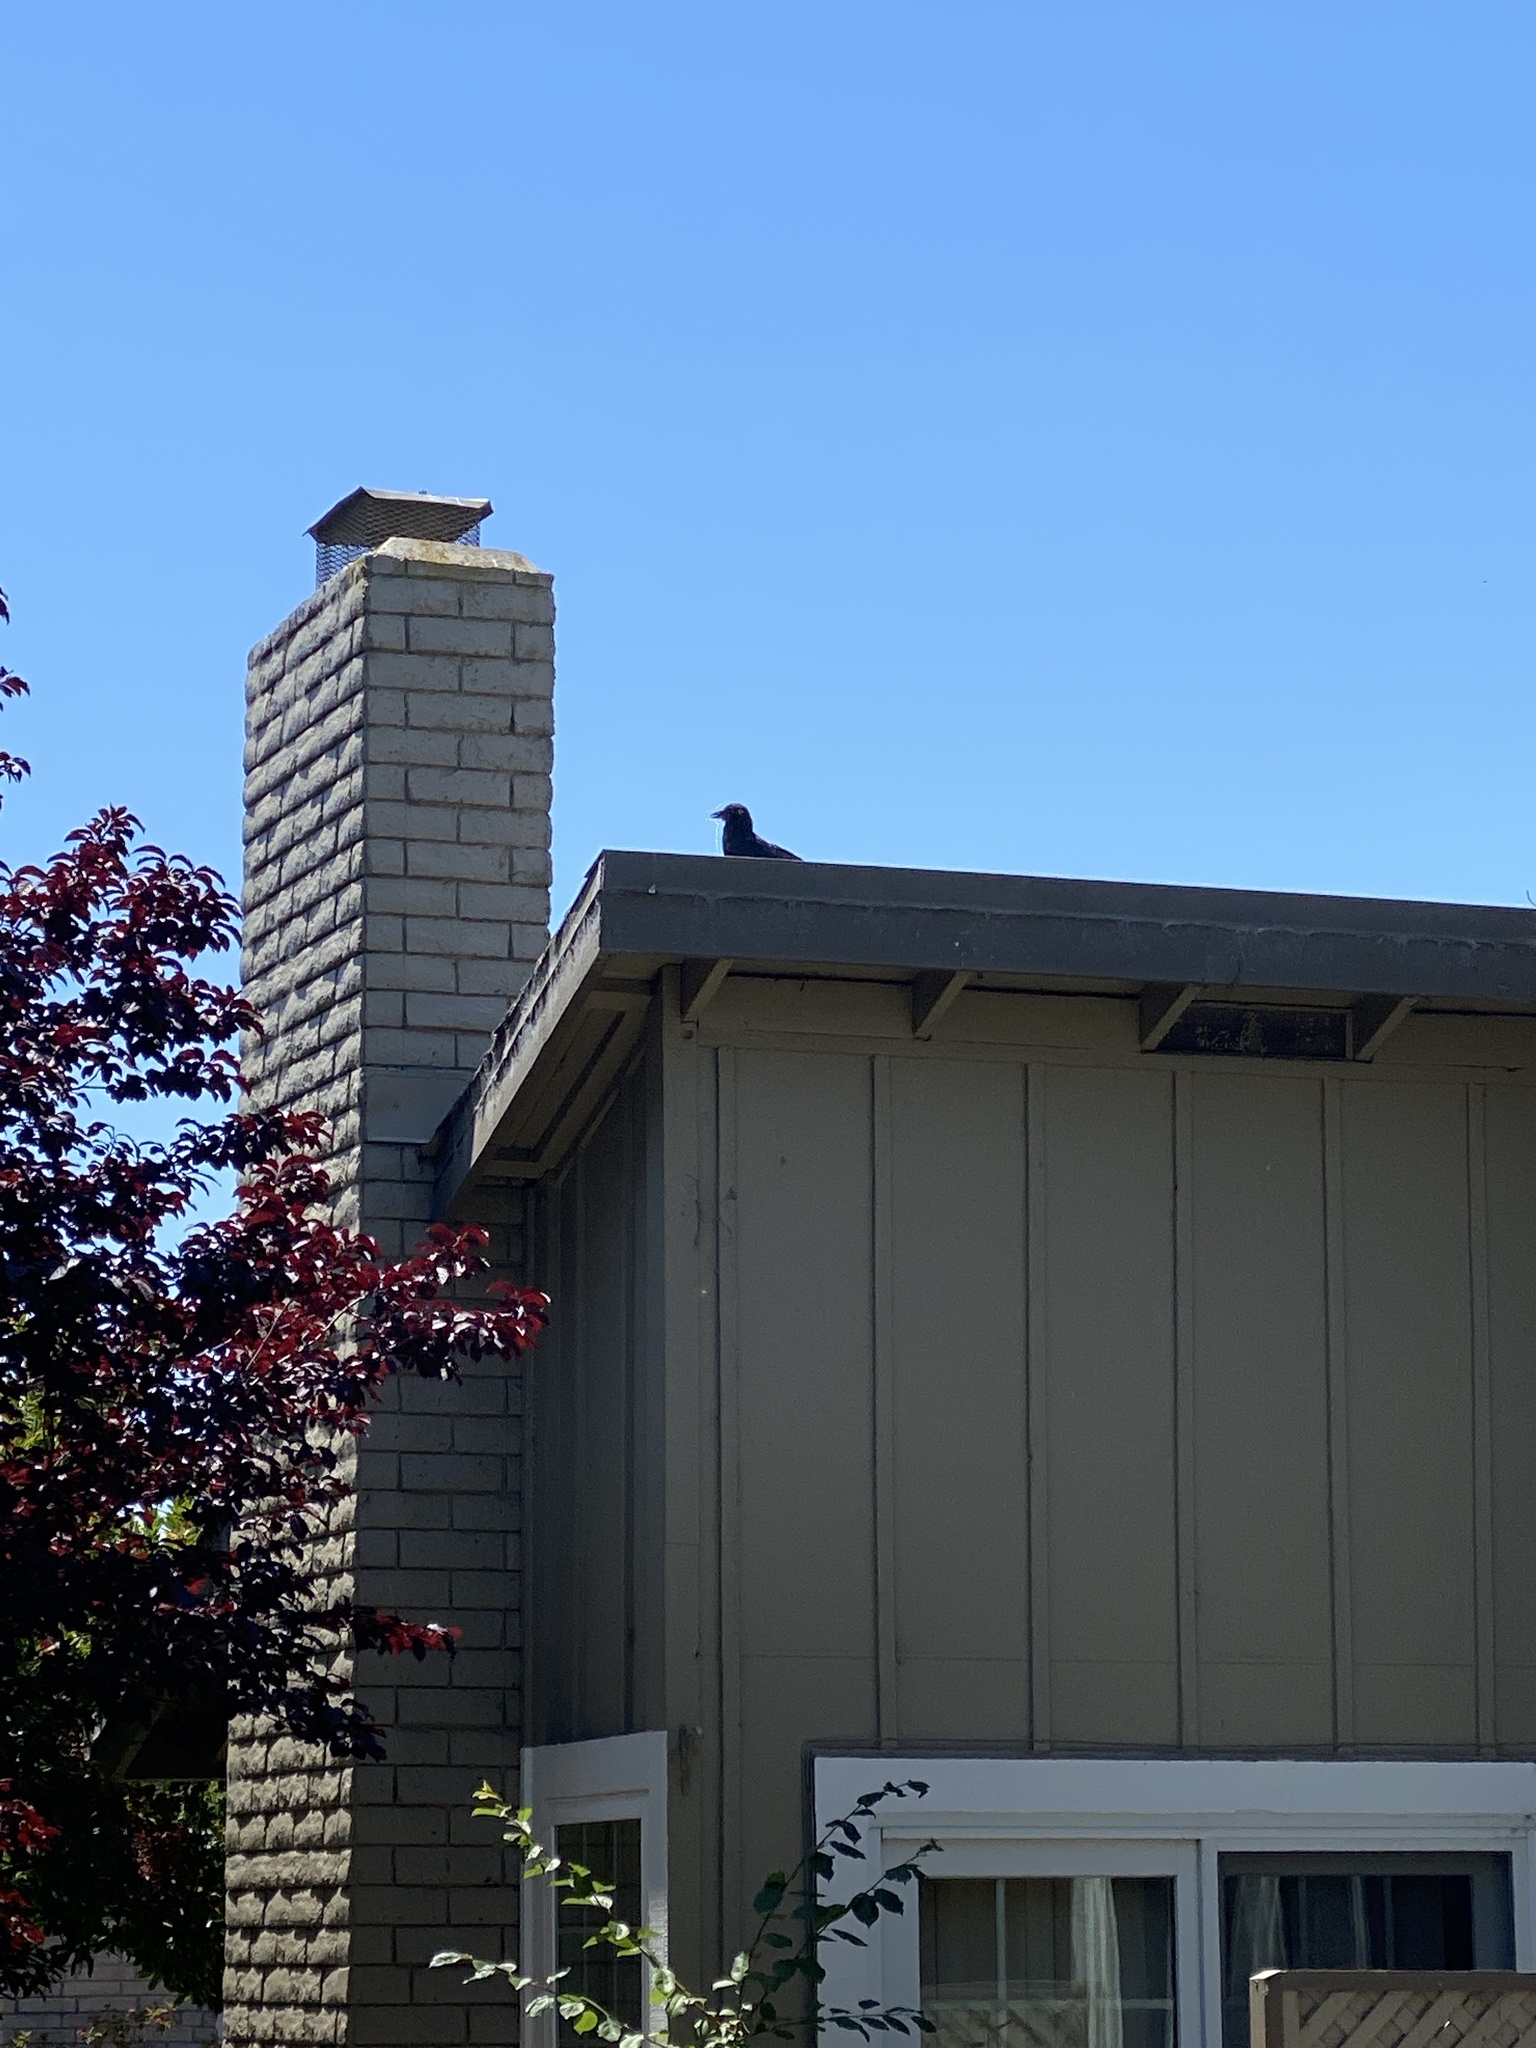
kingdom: Animalia
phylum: Chordata
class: Aves
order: Passeriformes
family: Corvidae
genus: Corvus
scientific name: Corvus brachyrhynchos
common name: American crow
